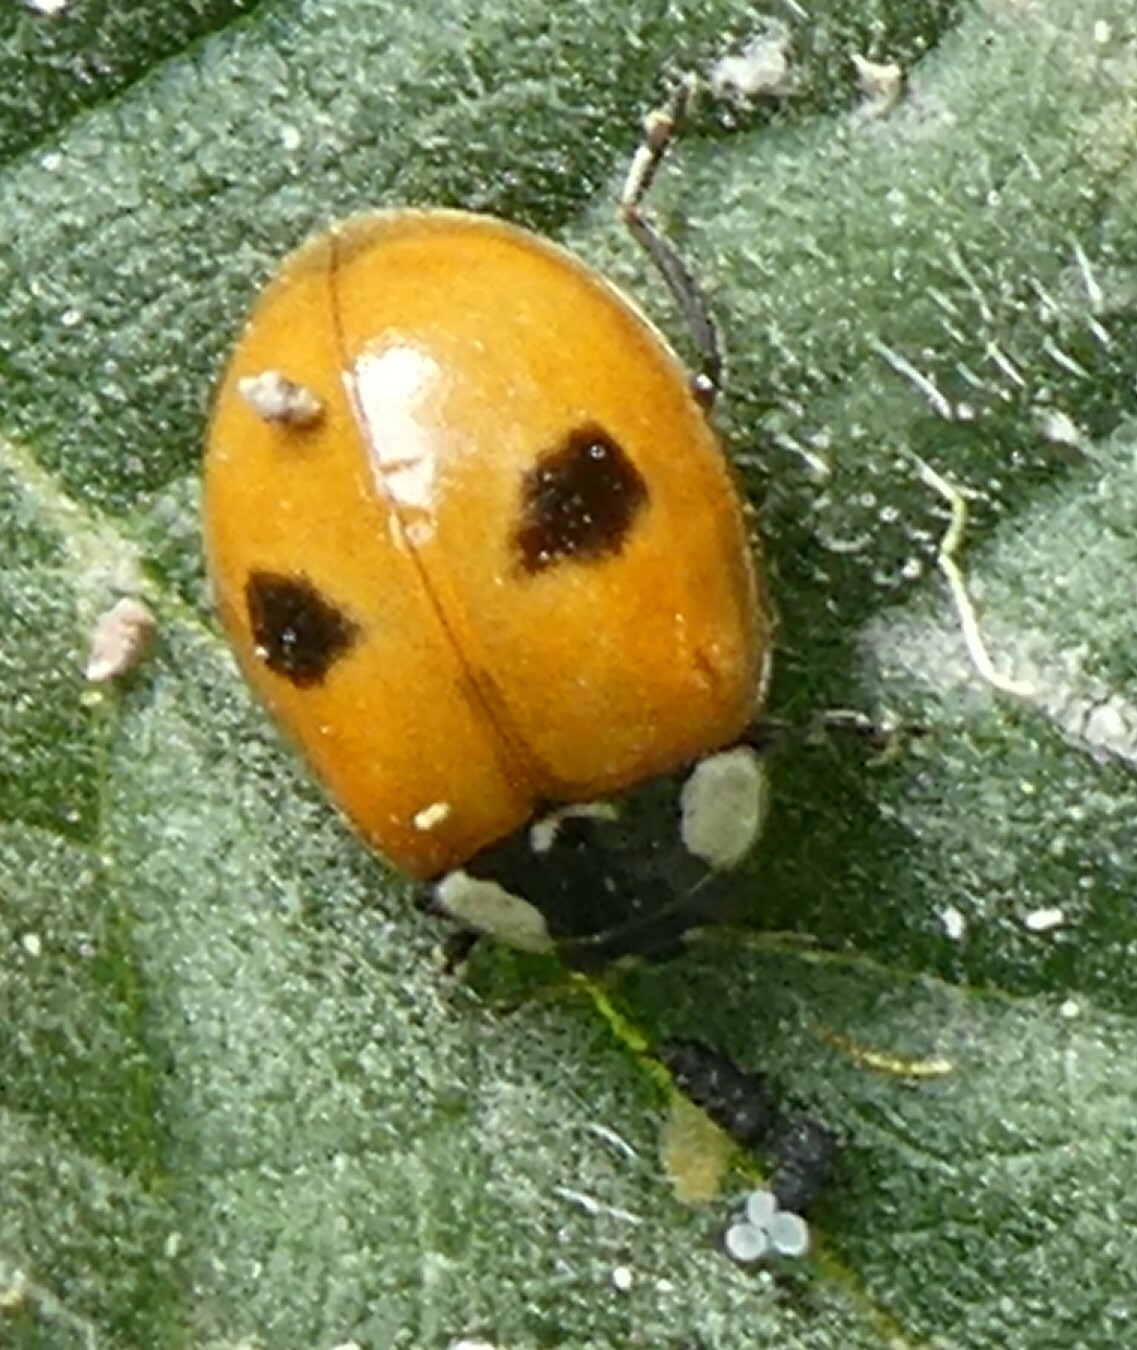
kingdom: Animalia
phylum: Arthropoda
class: Insecta
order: Coleoptera
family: Coccinellidae
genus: Adalia
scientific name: Adalia bipunctata
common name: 2-spot ladybird
